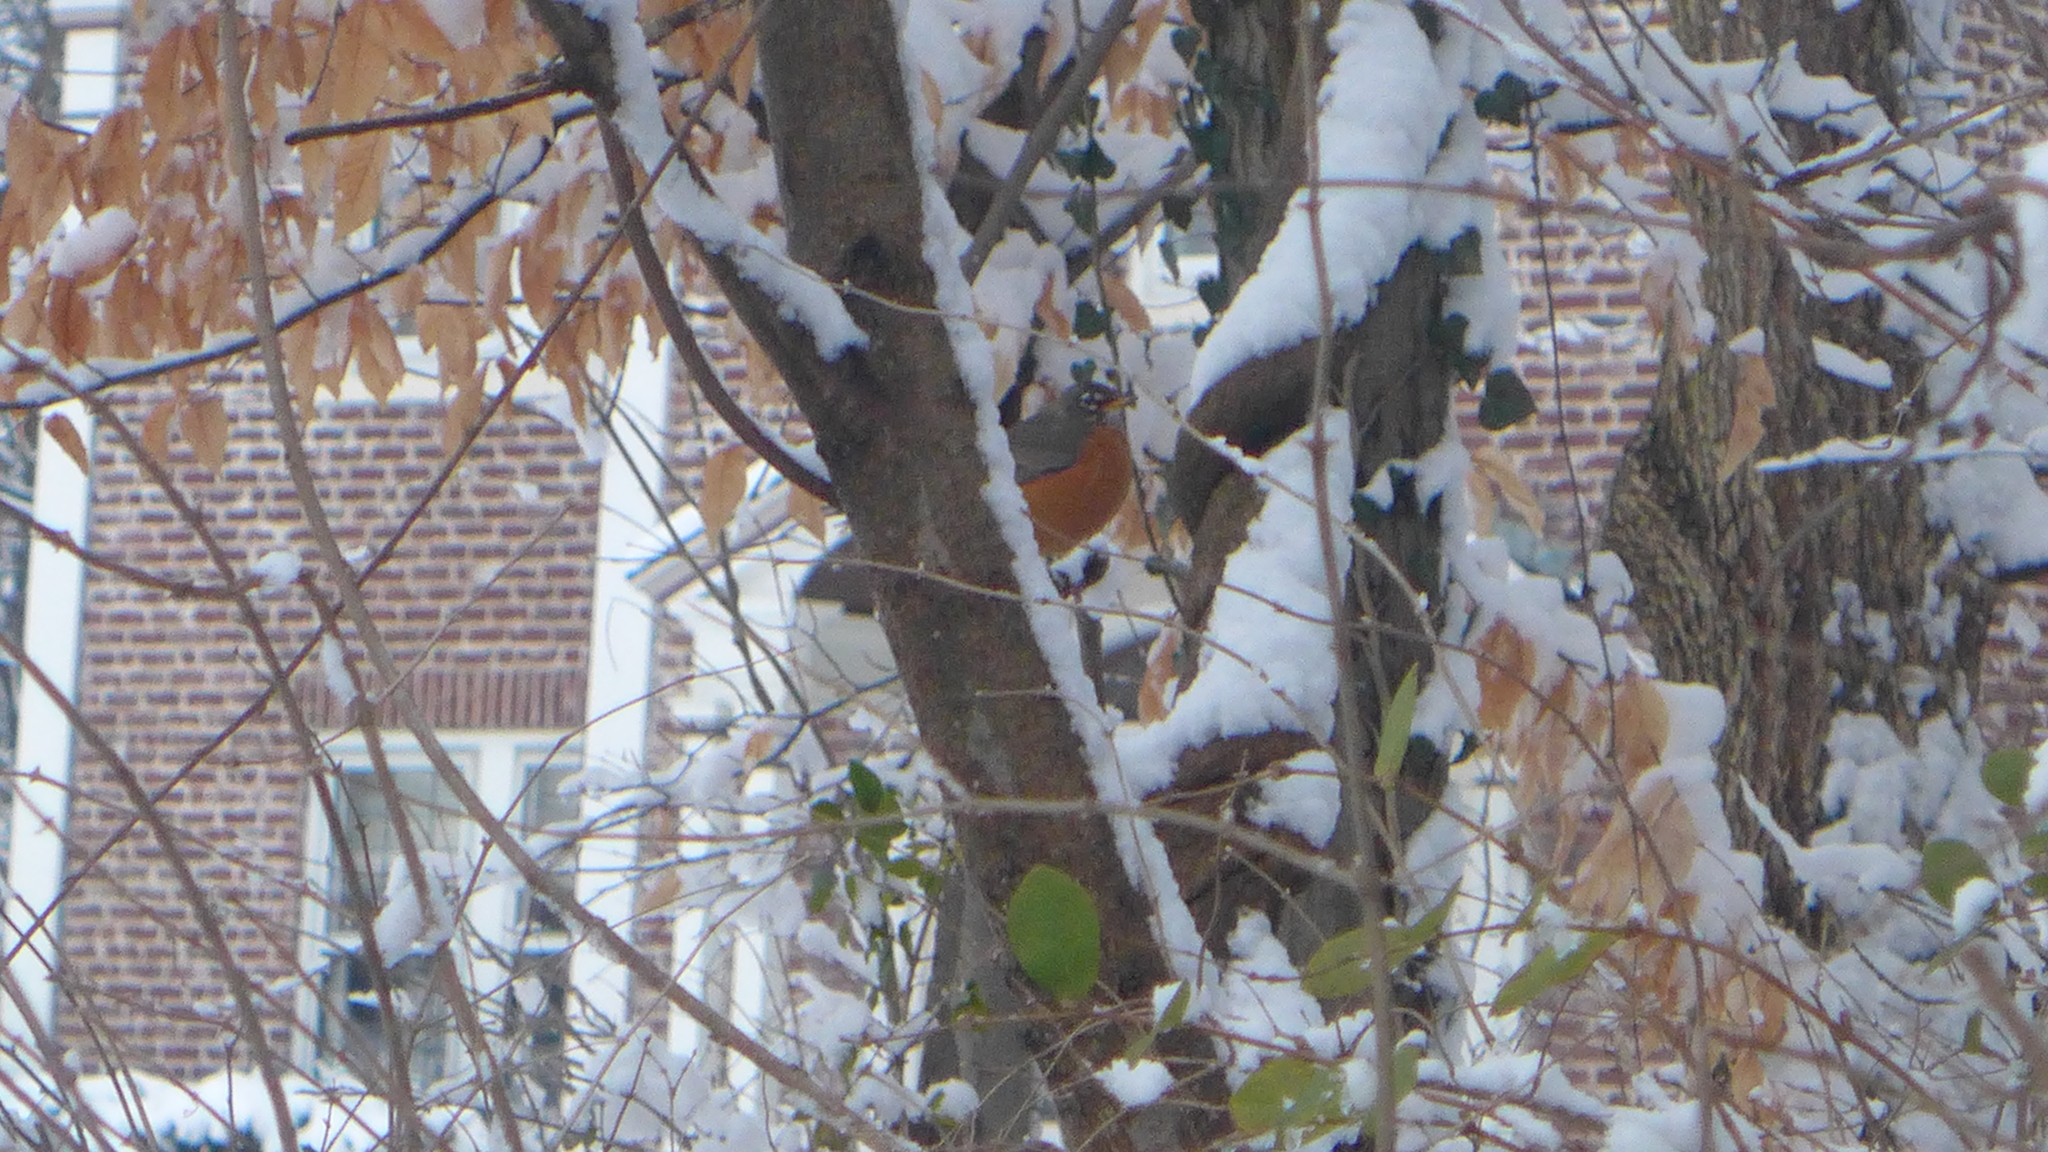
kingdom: Animalia
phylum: Chordata
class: Aves
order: Passeriformes
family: Turdidae
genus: Turdus
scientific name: Turdus migratorius
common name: American robin
